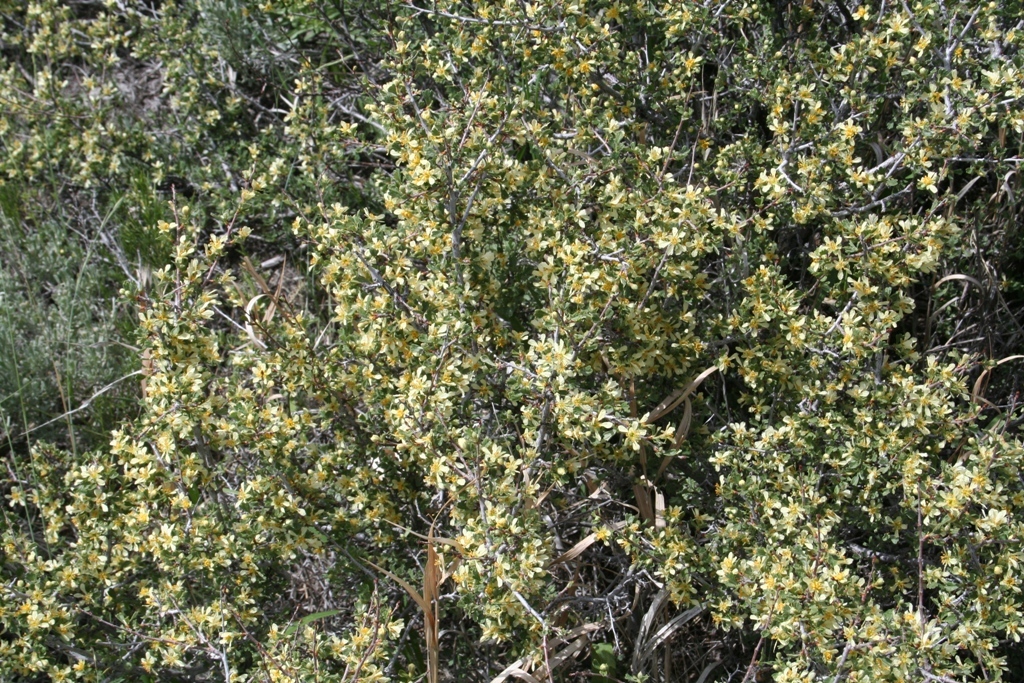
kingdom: Plantae
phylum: Tracheophyta
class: Magnoliopsida
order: Rosales
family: Rosaceae
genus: Purshia
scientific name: Purshia tridentata
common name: Antelope bitterbrush
